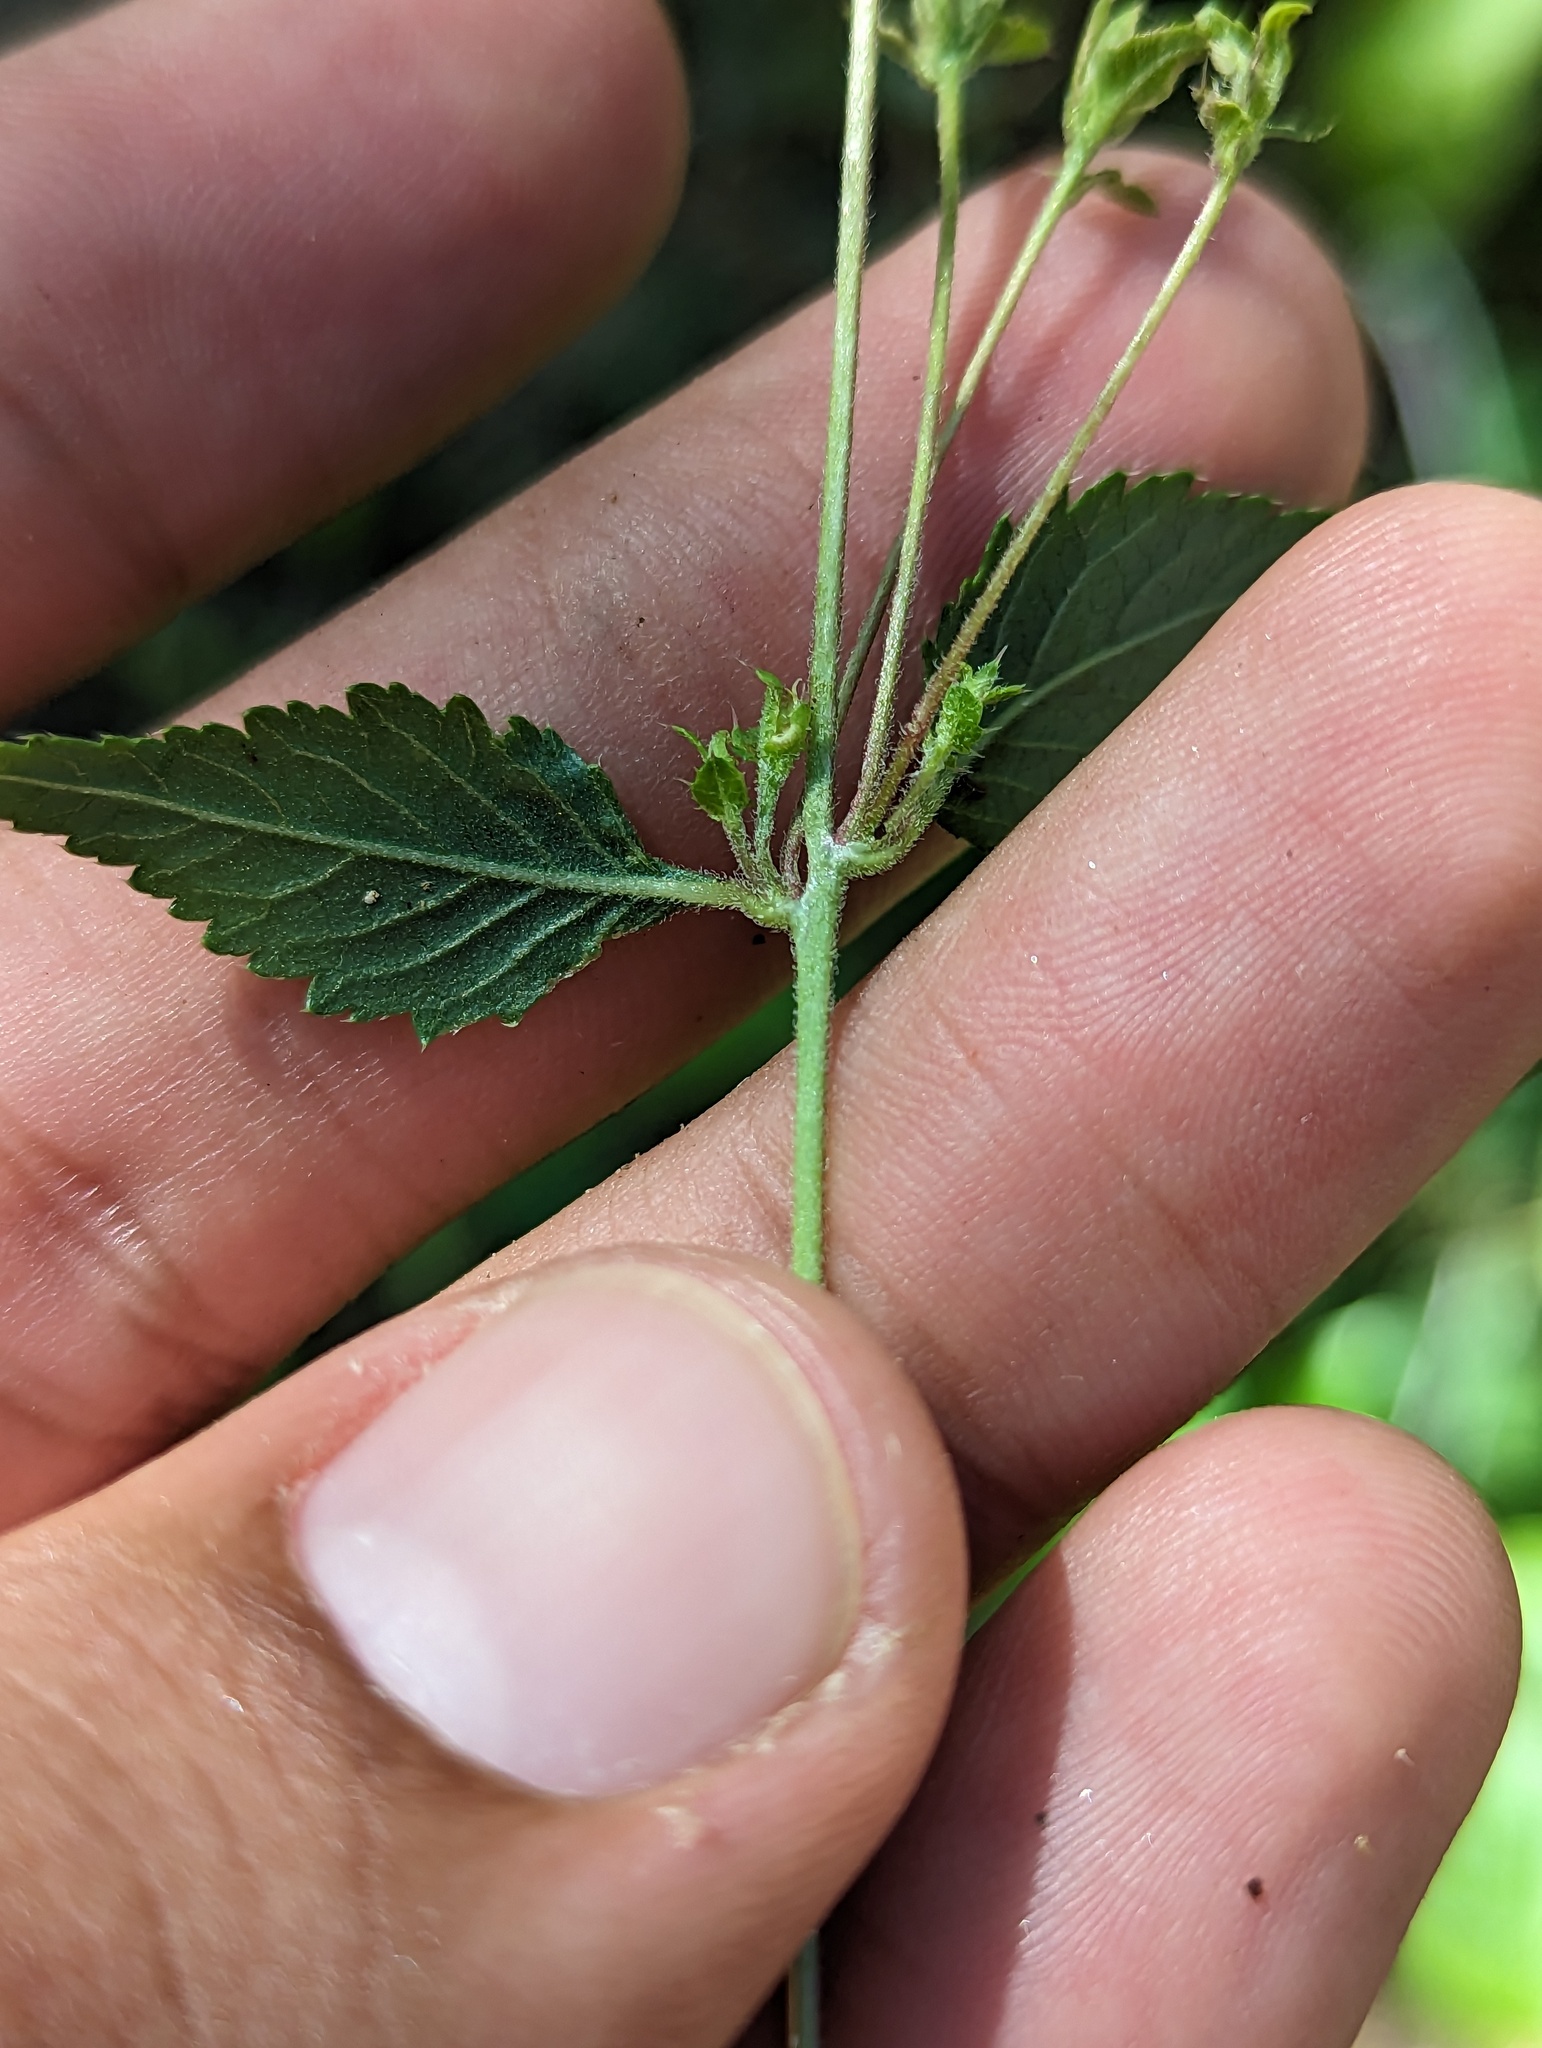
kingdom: Plantae
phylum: Tracheophyta
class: Magnoliopsida
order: Ericales
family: Polemoniaceae
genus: Loeselia
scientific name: Loeselia ciliata
